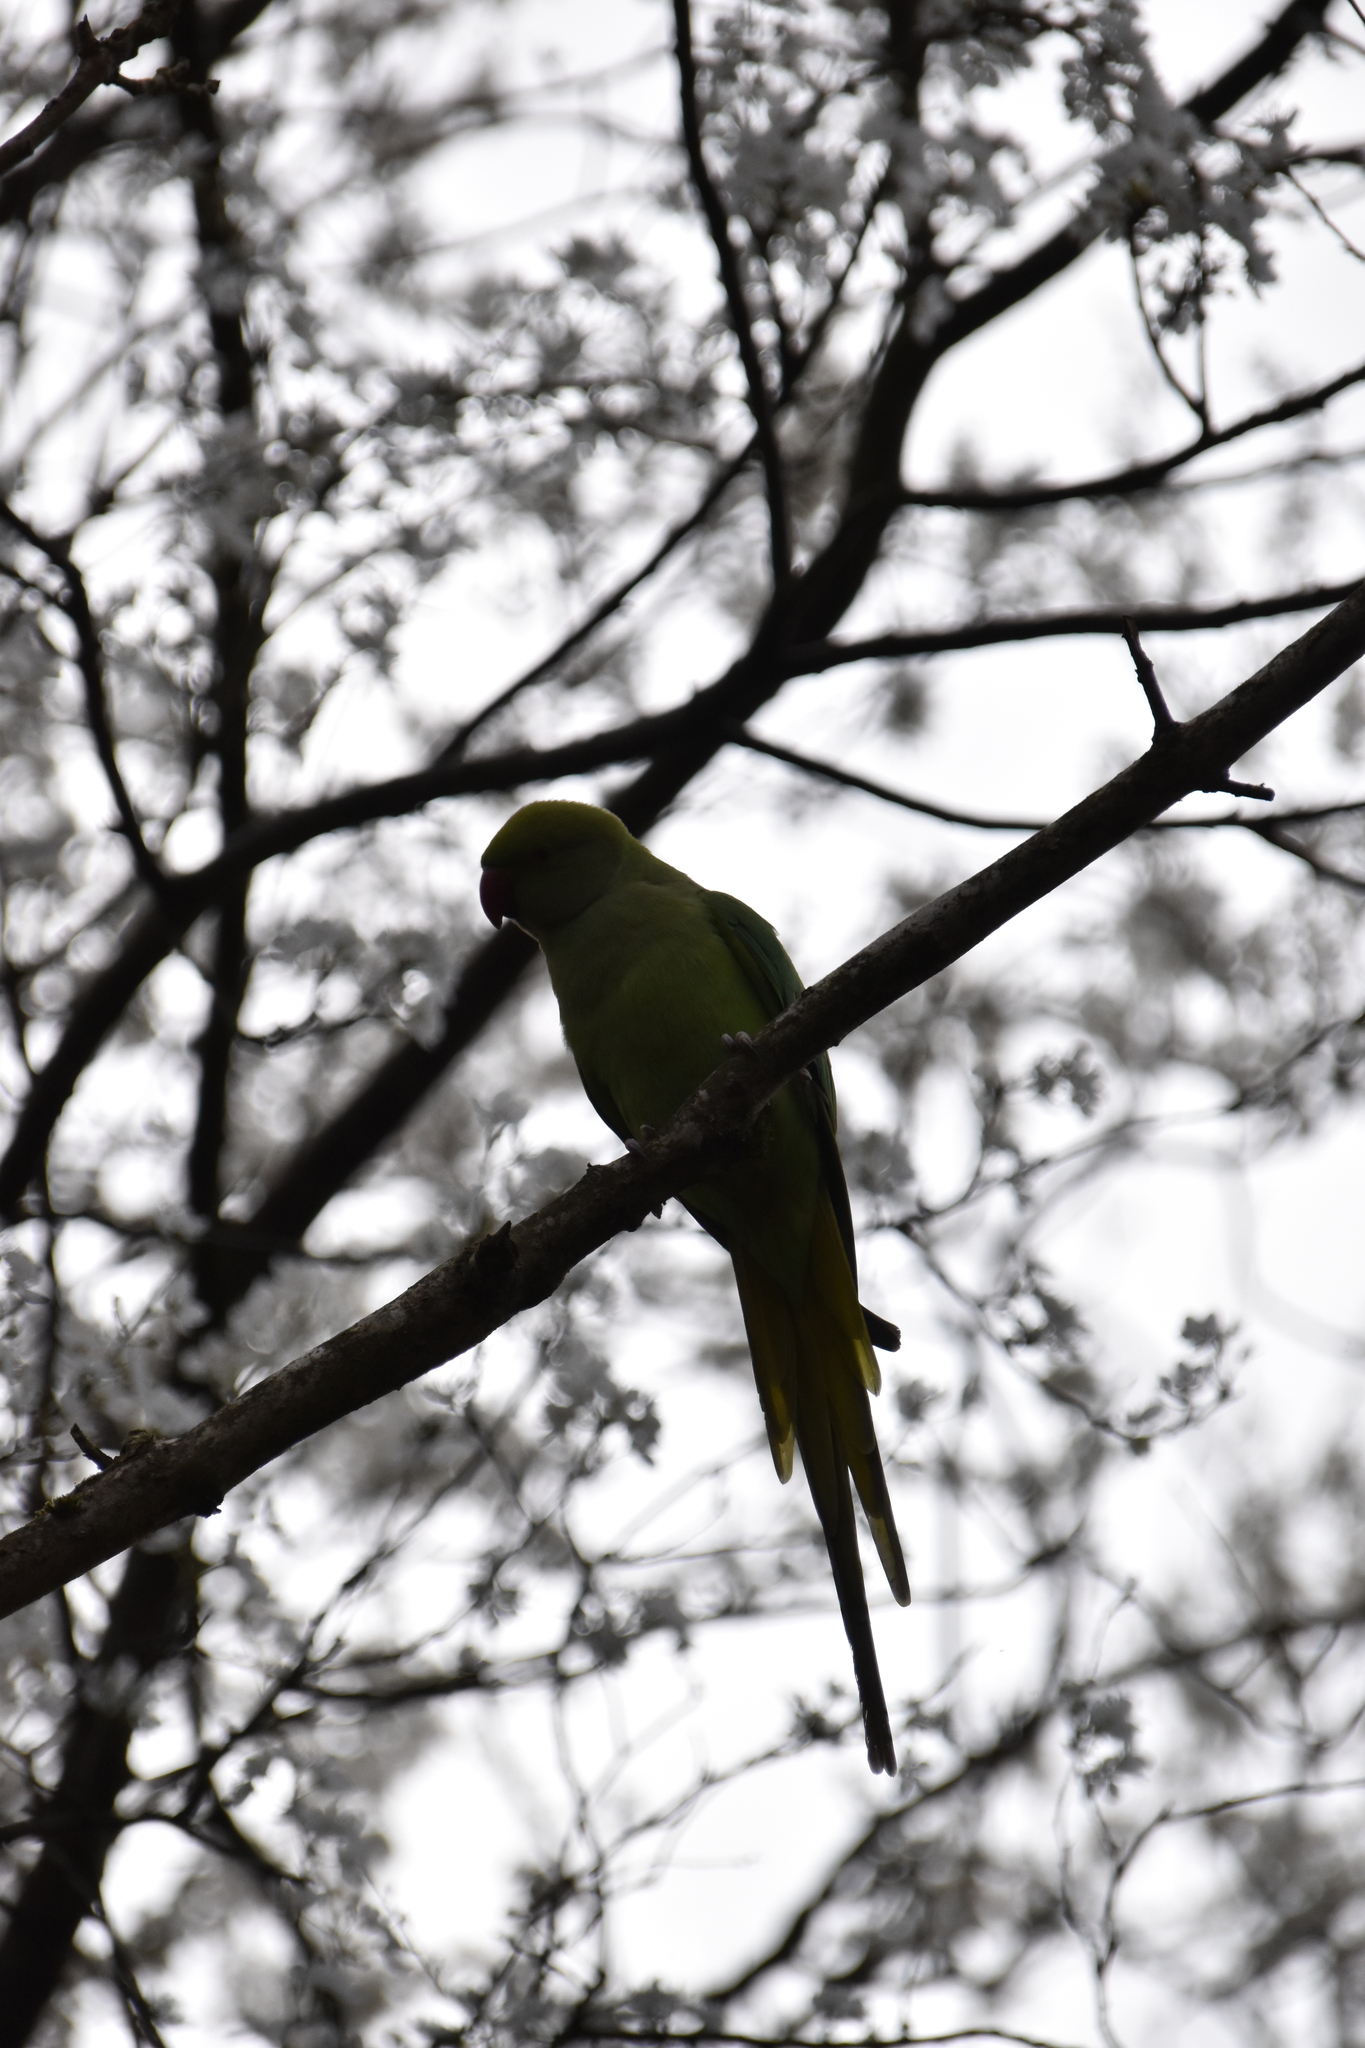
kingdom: Animalia
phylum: Chordata
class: Aves
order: Psittaciformes
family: Psittacidae
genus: Psittacula
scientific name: Psittacula krameri
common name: Rose-ringed parakeet
